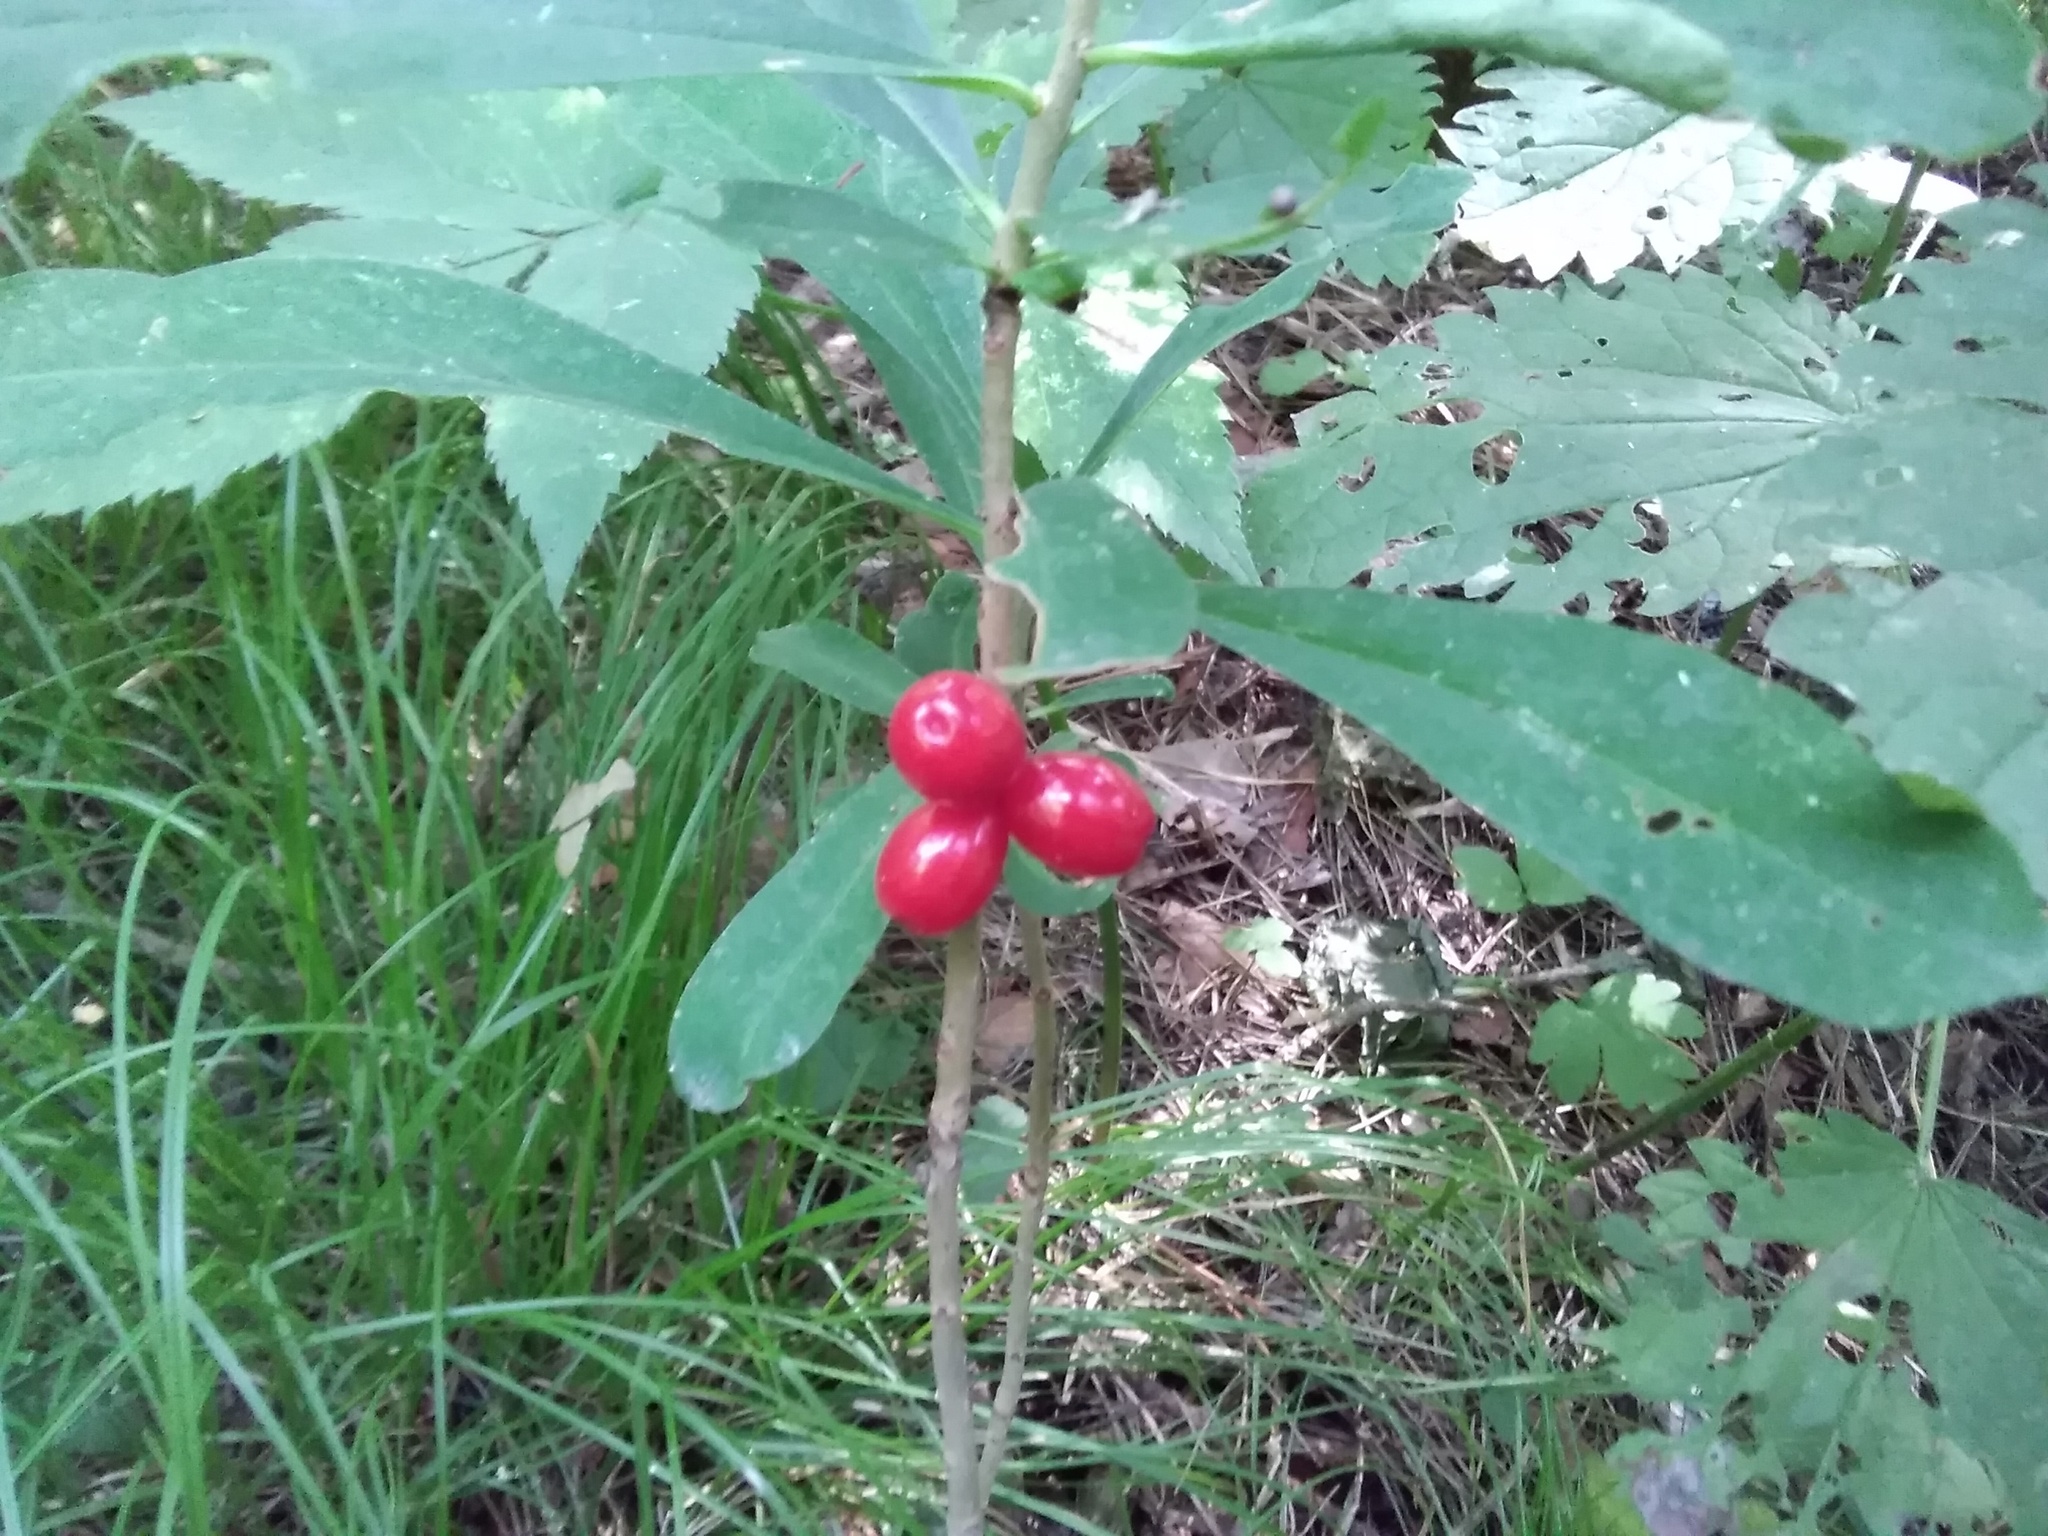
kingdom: Plantae
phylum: Tracheophyta
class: Magnoliopsida
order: Malvales
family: Thymelaeaceae
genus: Daphne
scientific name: Daphne mezereum
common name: Mezereon
